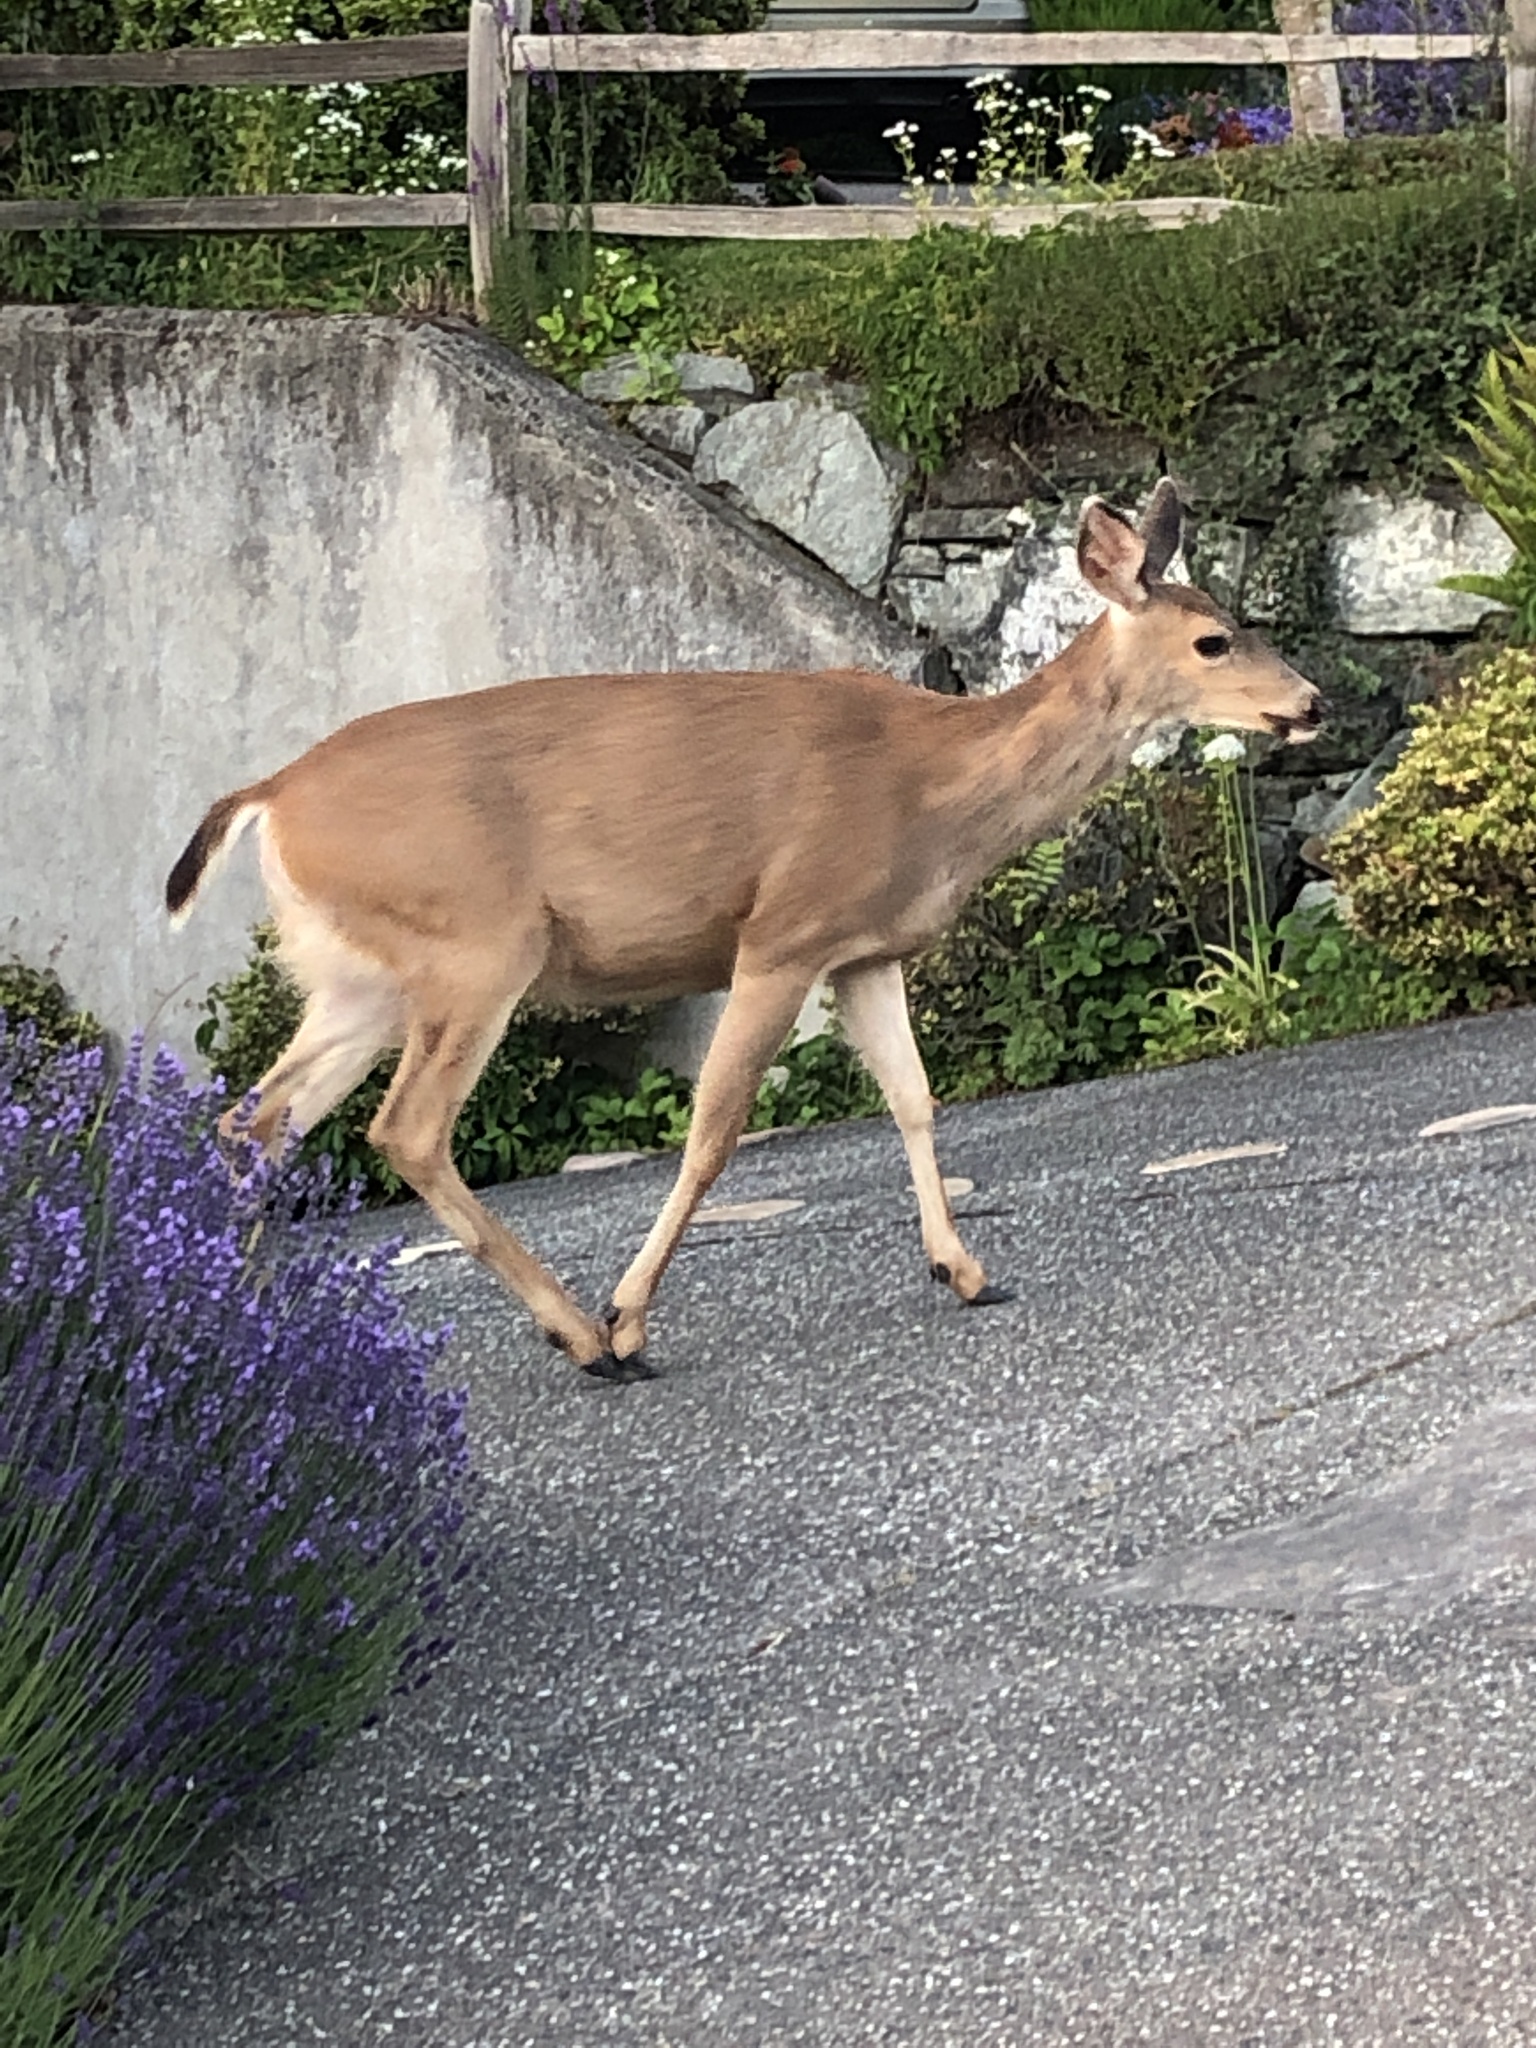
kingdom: Animalia
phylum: Chordata
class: Mammalia
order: Artiodactyla
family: Cervidae
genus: Odocoileus
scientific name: Odocoileus hemionus
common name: Mule deer
